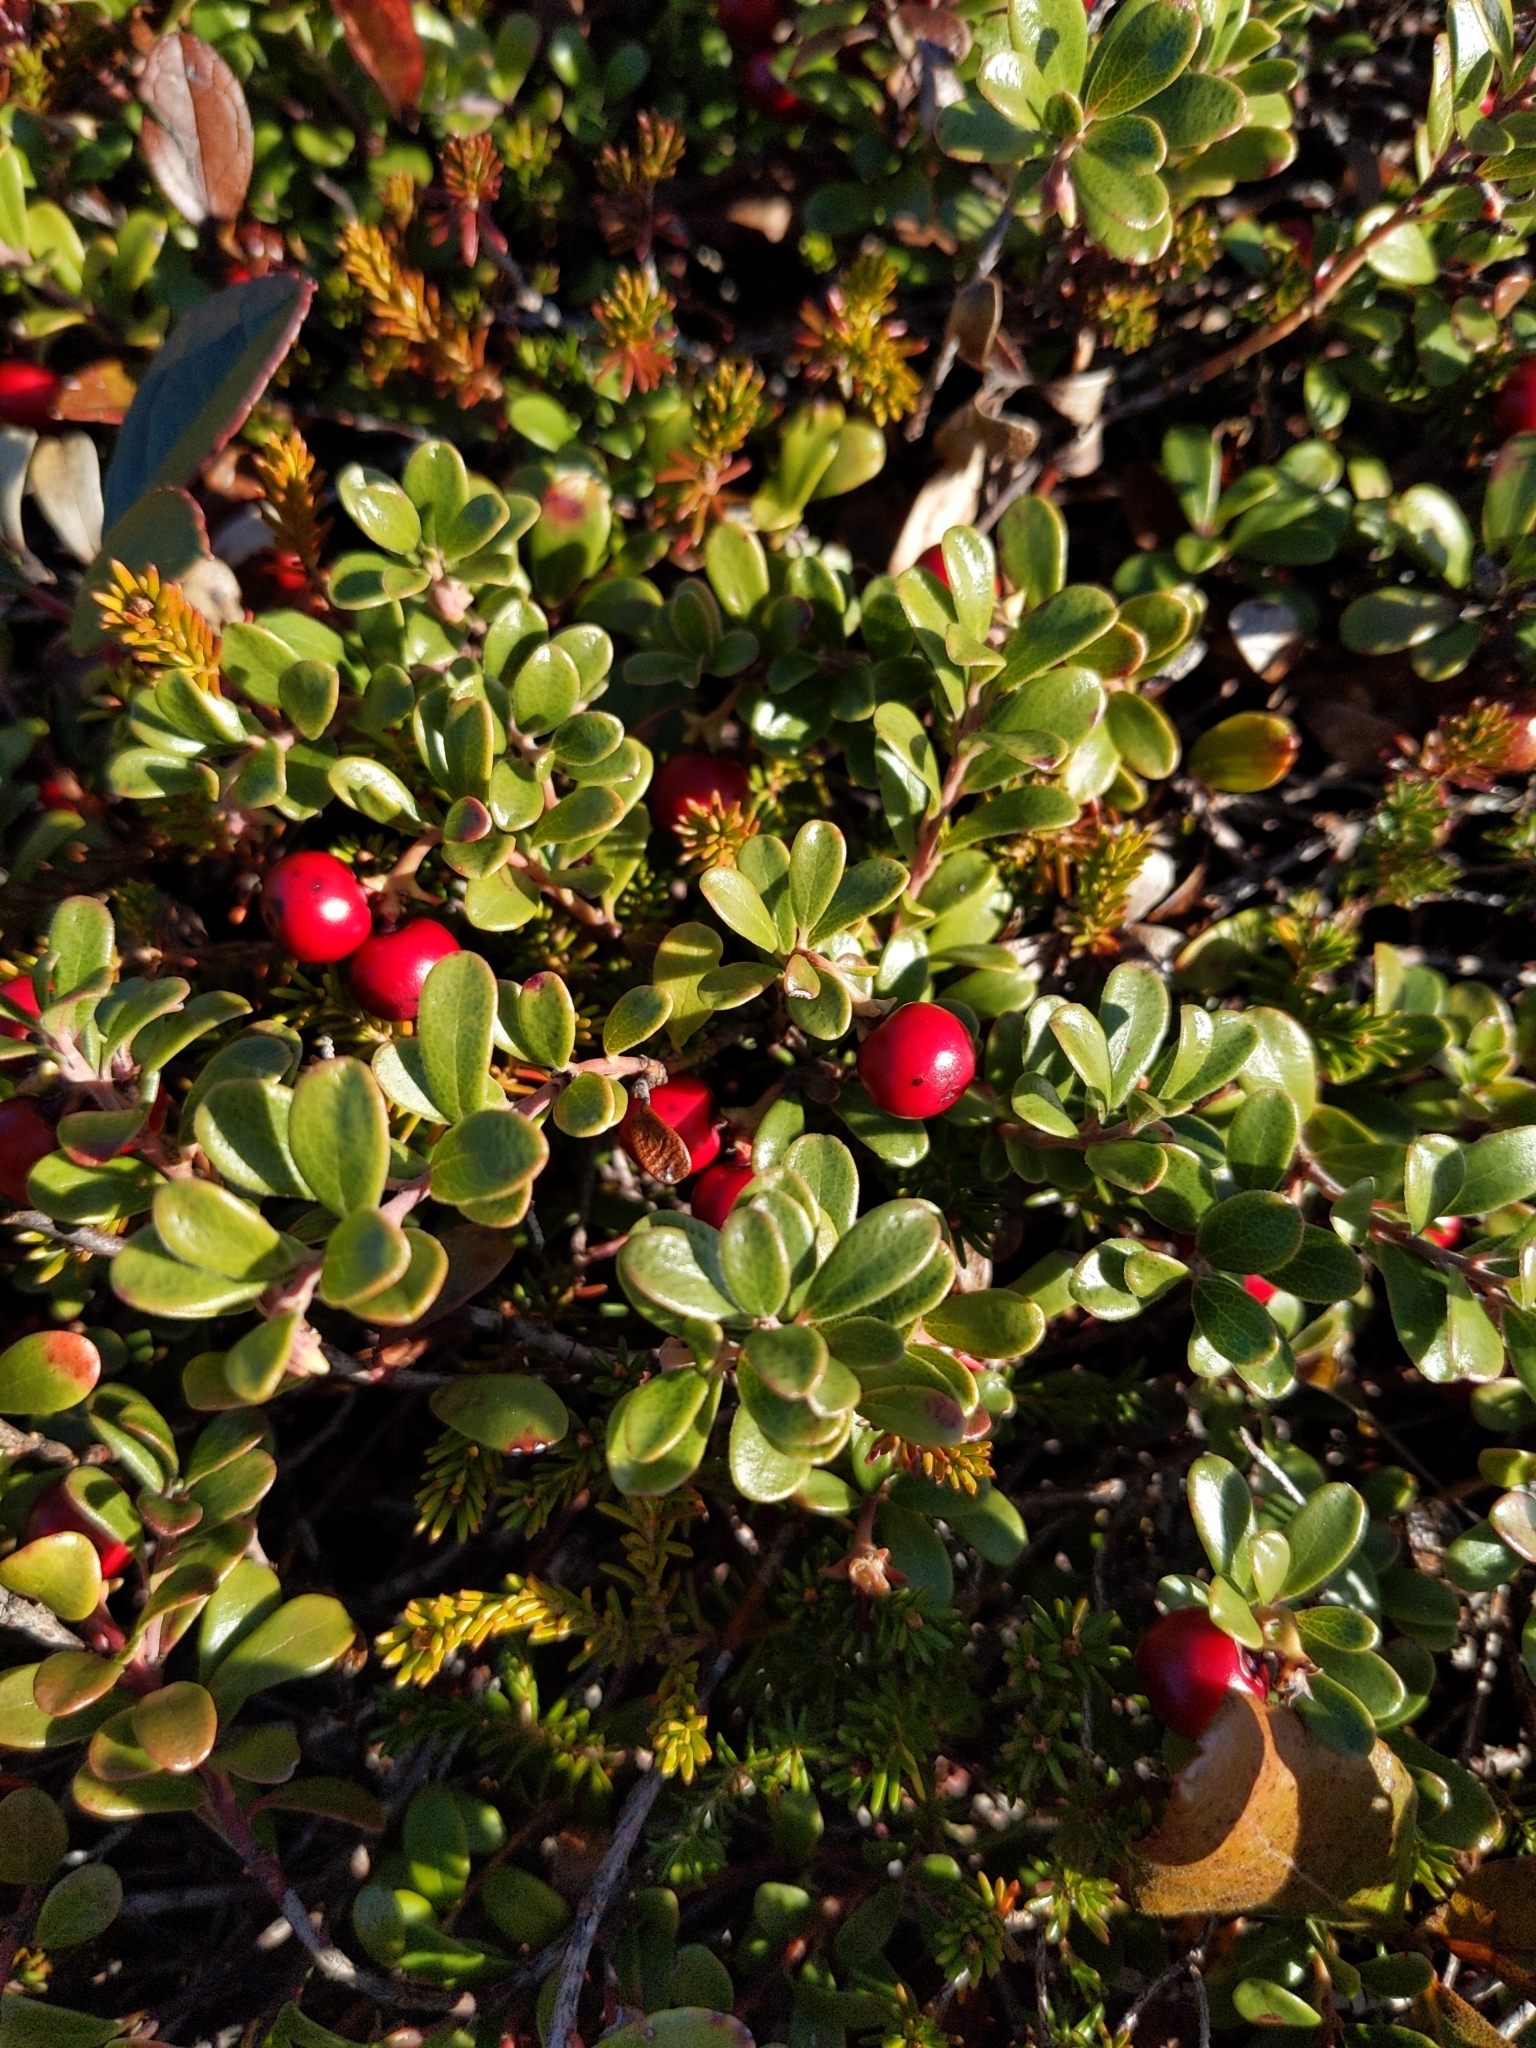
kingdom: Plantae
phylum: Tracheophyta
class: Magnoliopsida
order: Ericales
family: Ericaceae
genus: Arctostaphylos
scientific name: Arctostaphylos uva-ursi
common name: Bearberry
